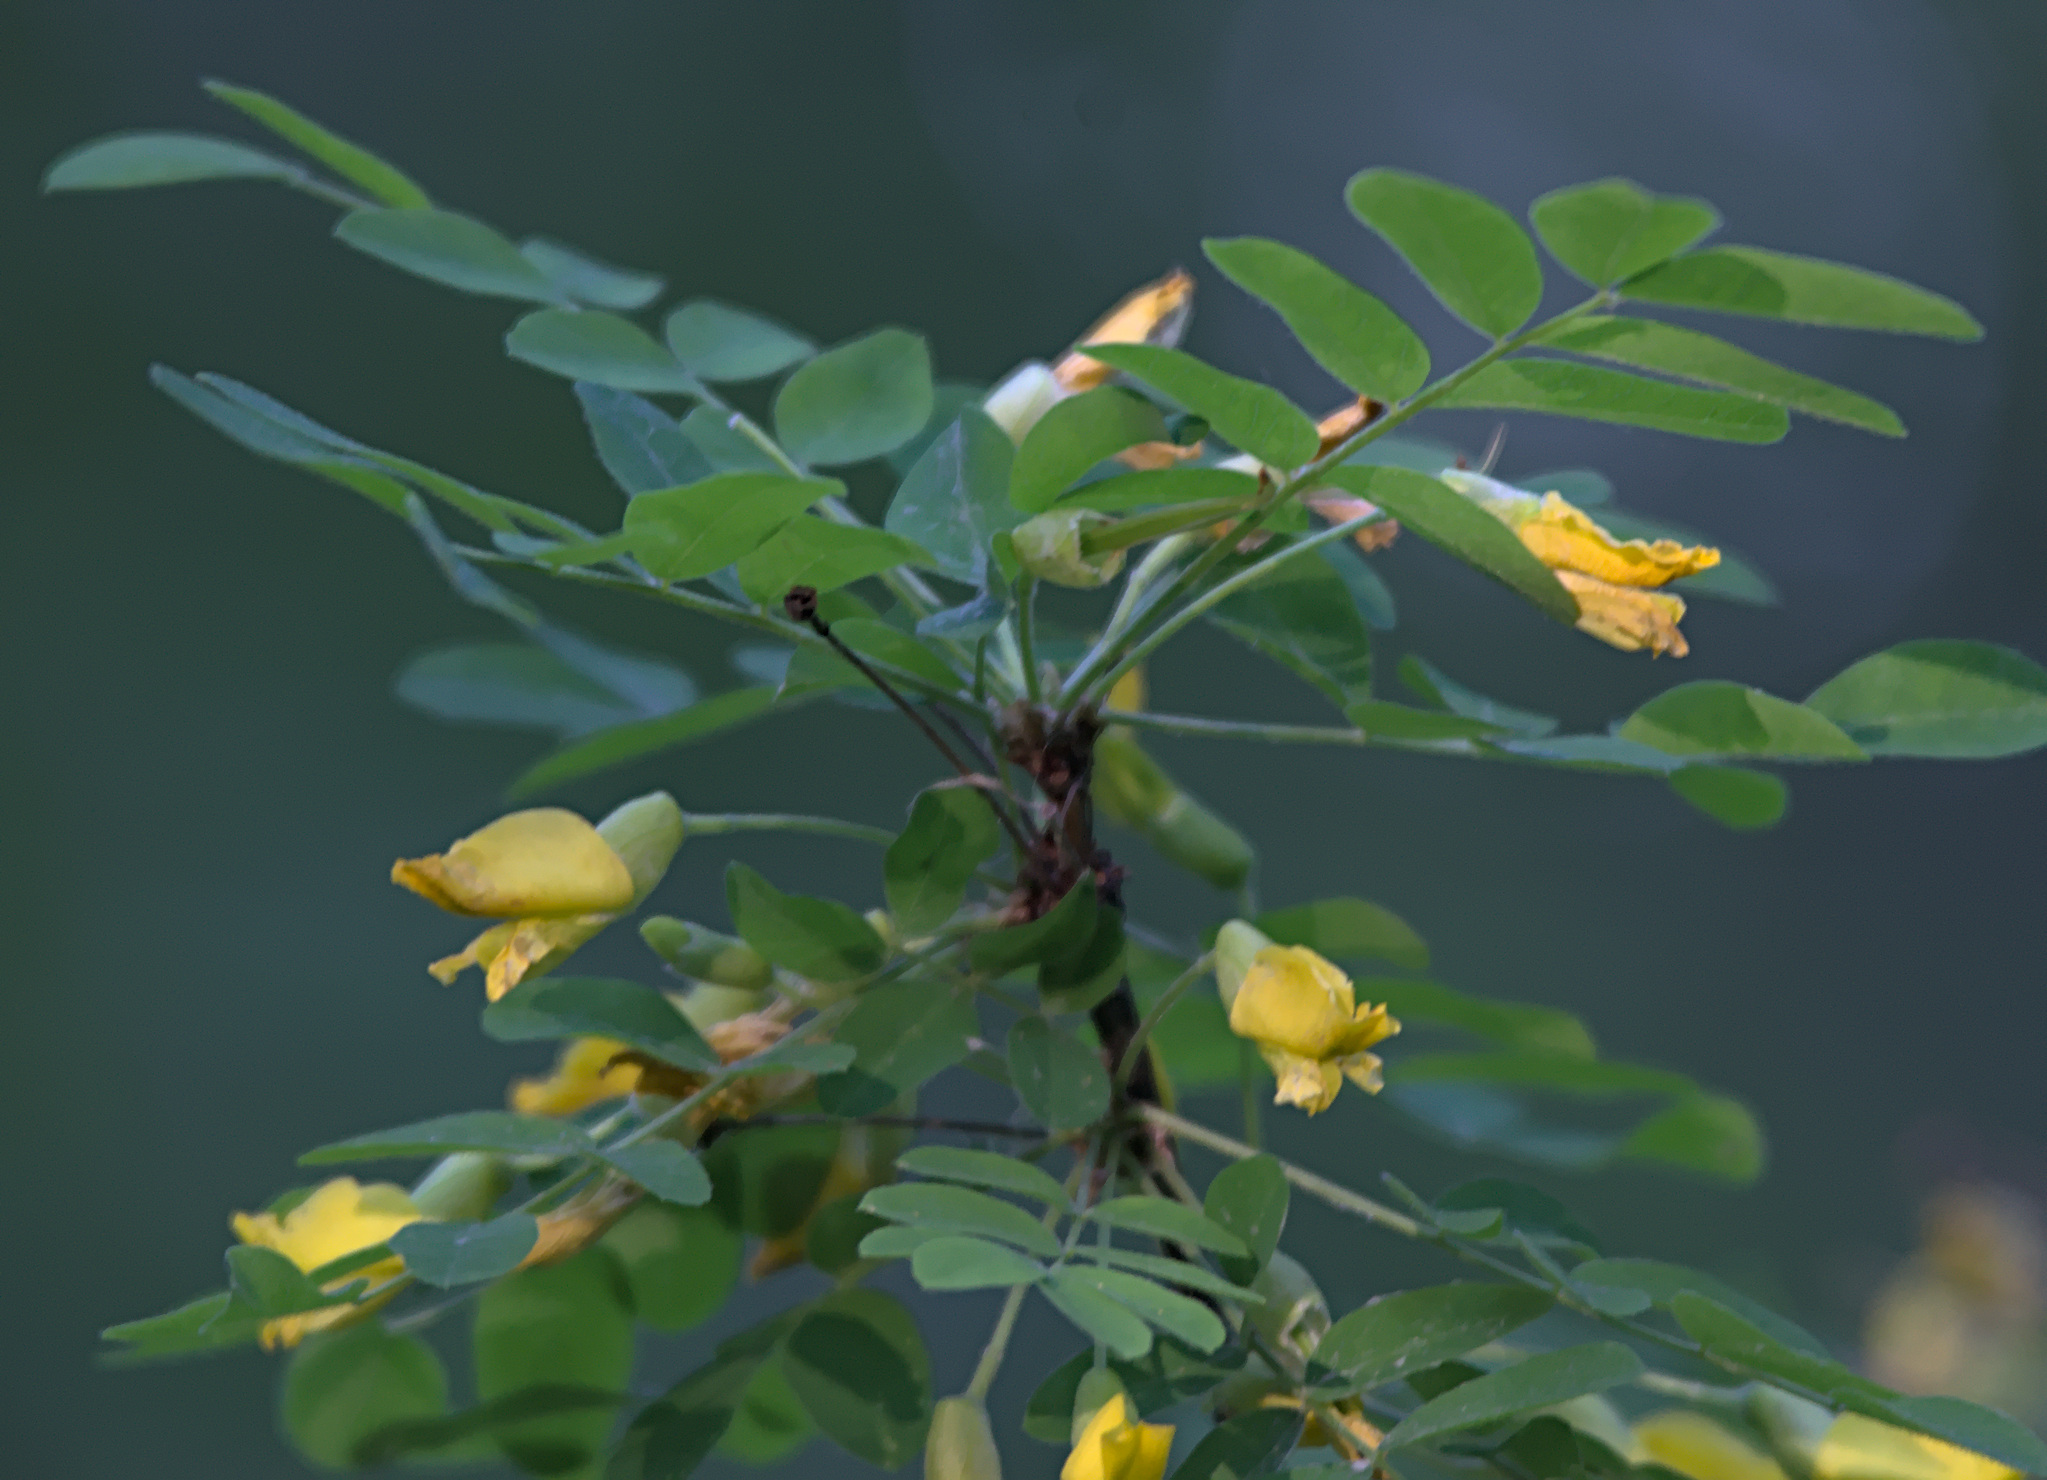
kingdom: Plantae
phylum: Tracheophyta
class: Magnoliopsida
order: Fabales
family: Fabaceae
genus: Caragana
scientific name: Caragana arborescens
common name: Siberian peashrub
